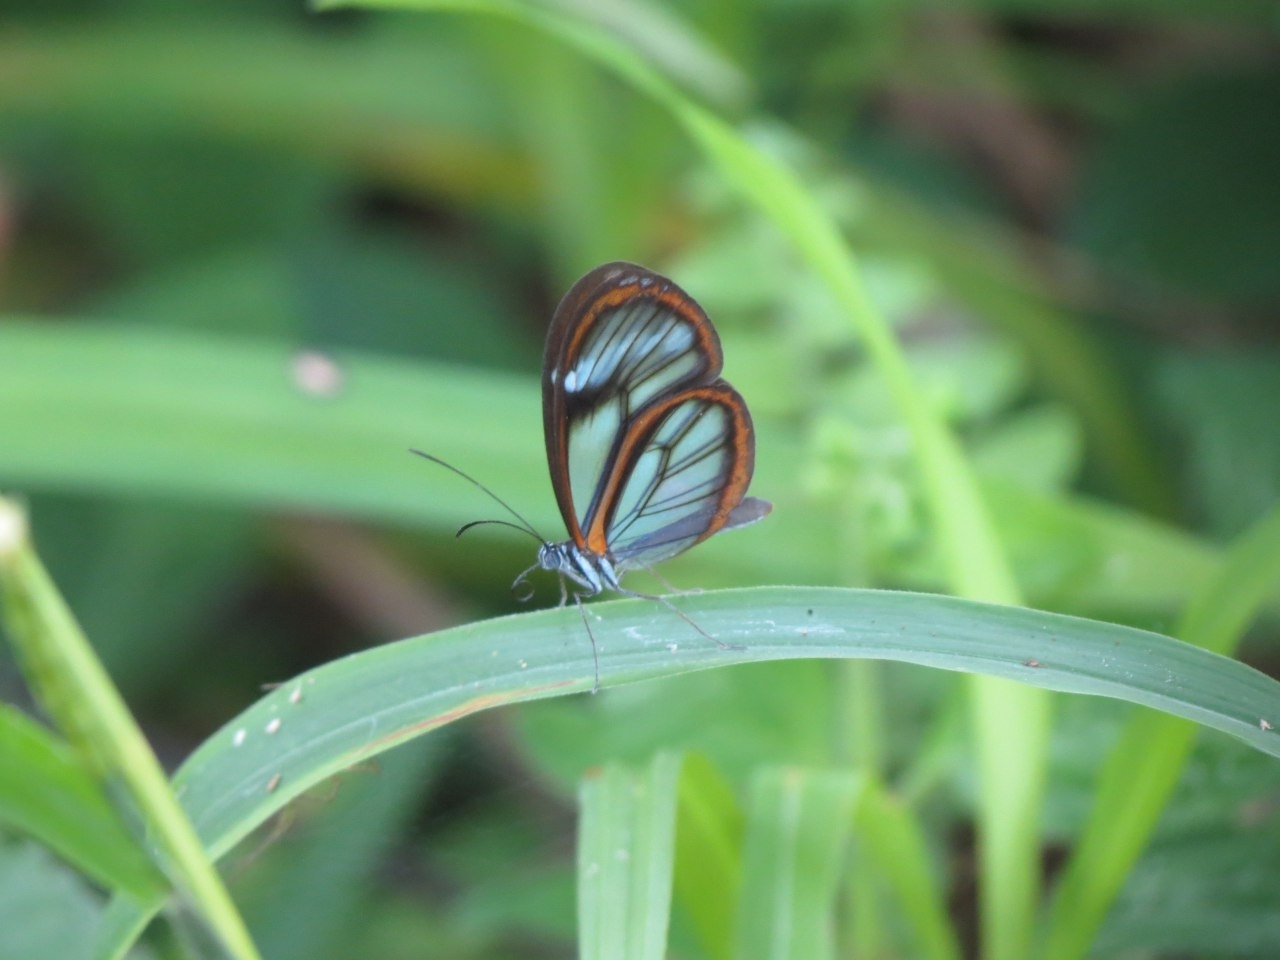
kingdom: Animalia
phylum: Arthropoda
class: Insecta
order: Lepidoptera
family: Nymphalidae
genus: Pseudoscada
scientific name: Pseudoscada timna
